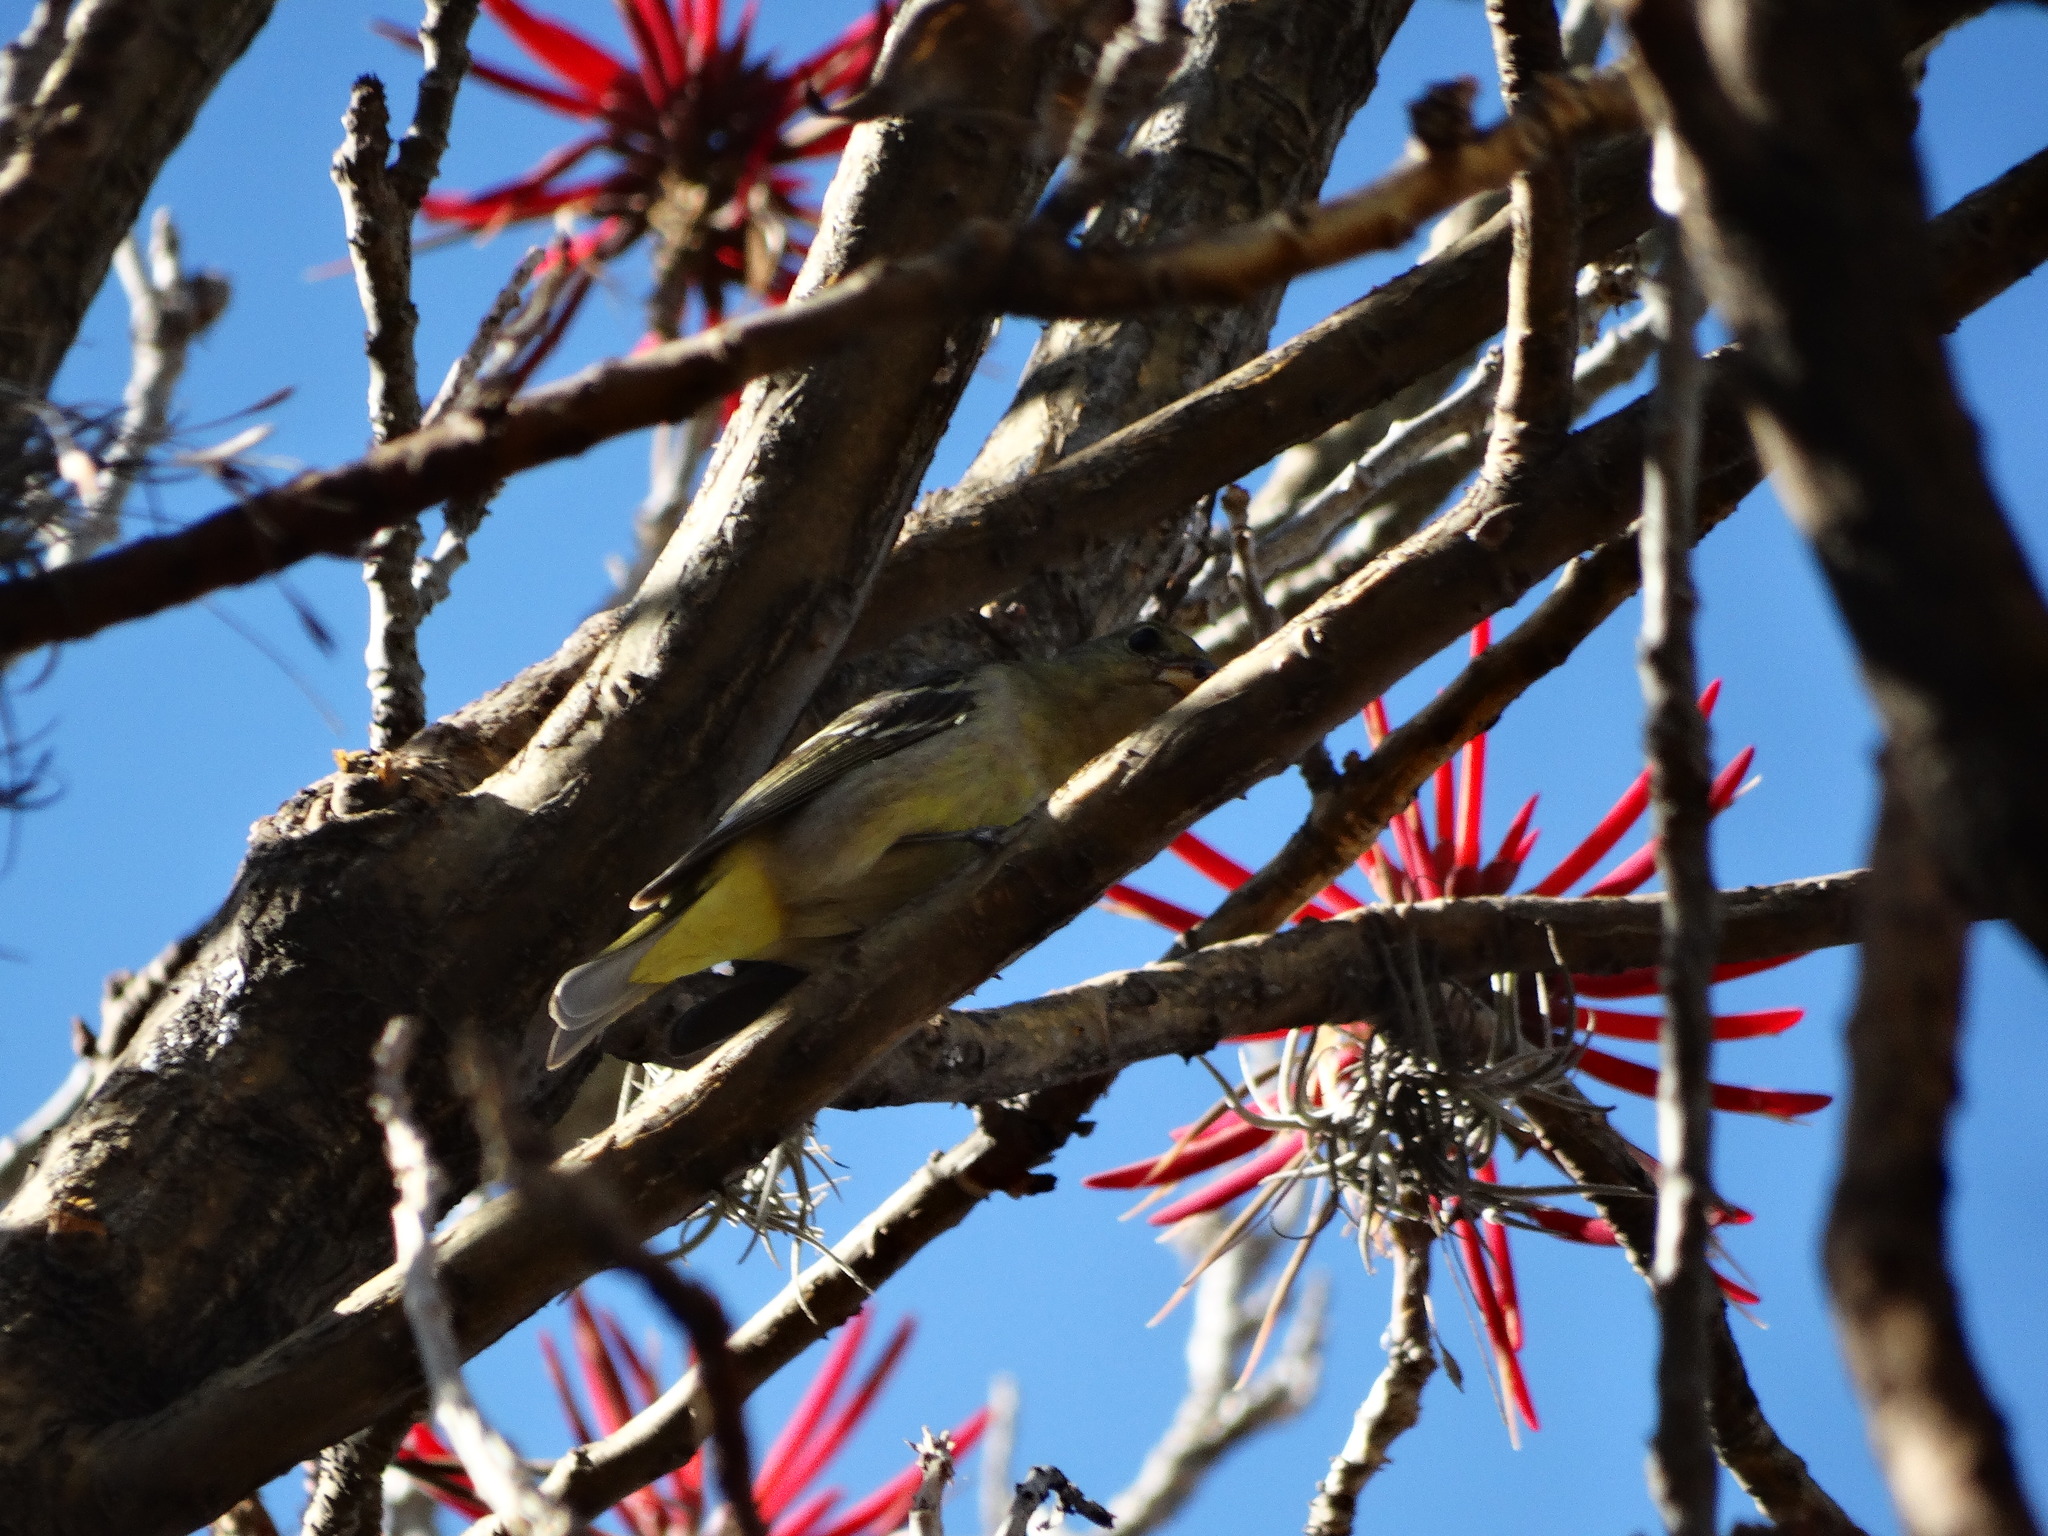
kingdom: Animalia
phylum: Chordata
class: Aves
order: Passeriformes
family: Cardinalidae
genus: Piranga
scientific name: Piranga ludoviciana
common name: Western tanager
